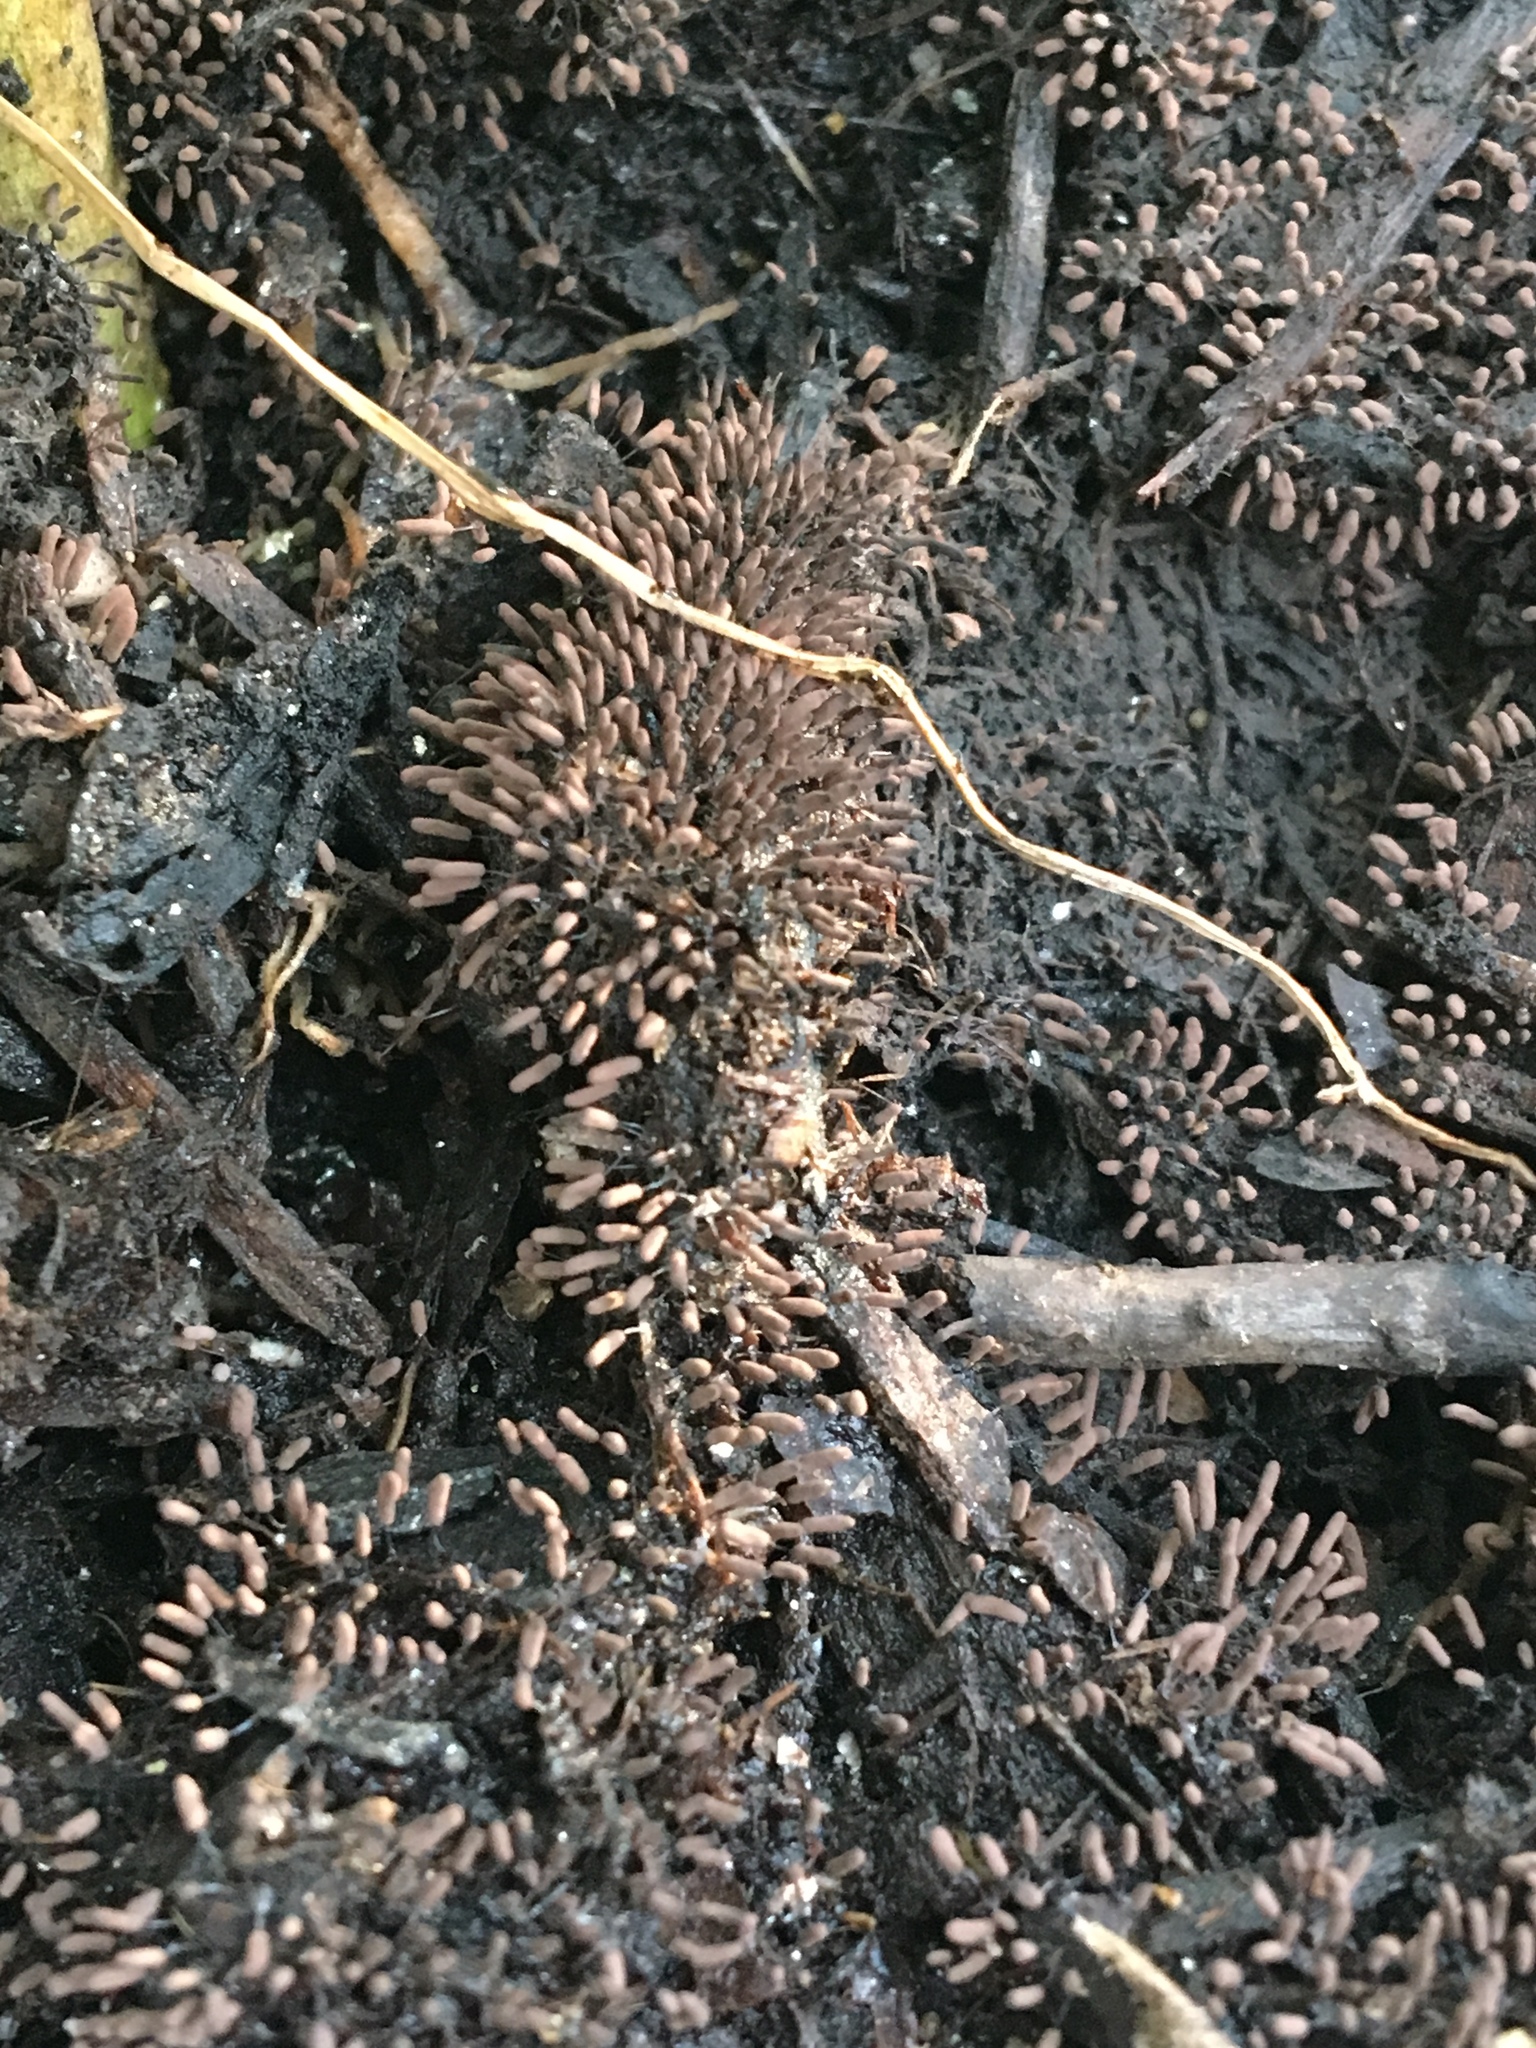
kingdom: Protozoa
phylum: Mycetozoa
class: Myxomycetes
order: Trichiales
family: Arcyriaceae
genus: Arcyria
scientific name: Arcyria denudata
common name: Carnival candy slime mold
